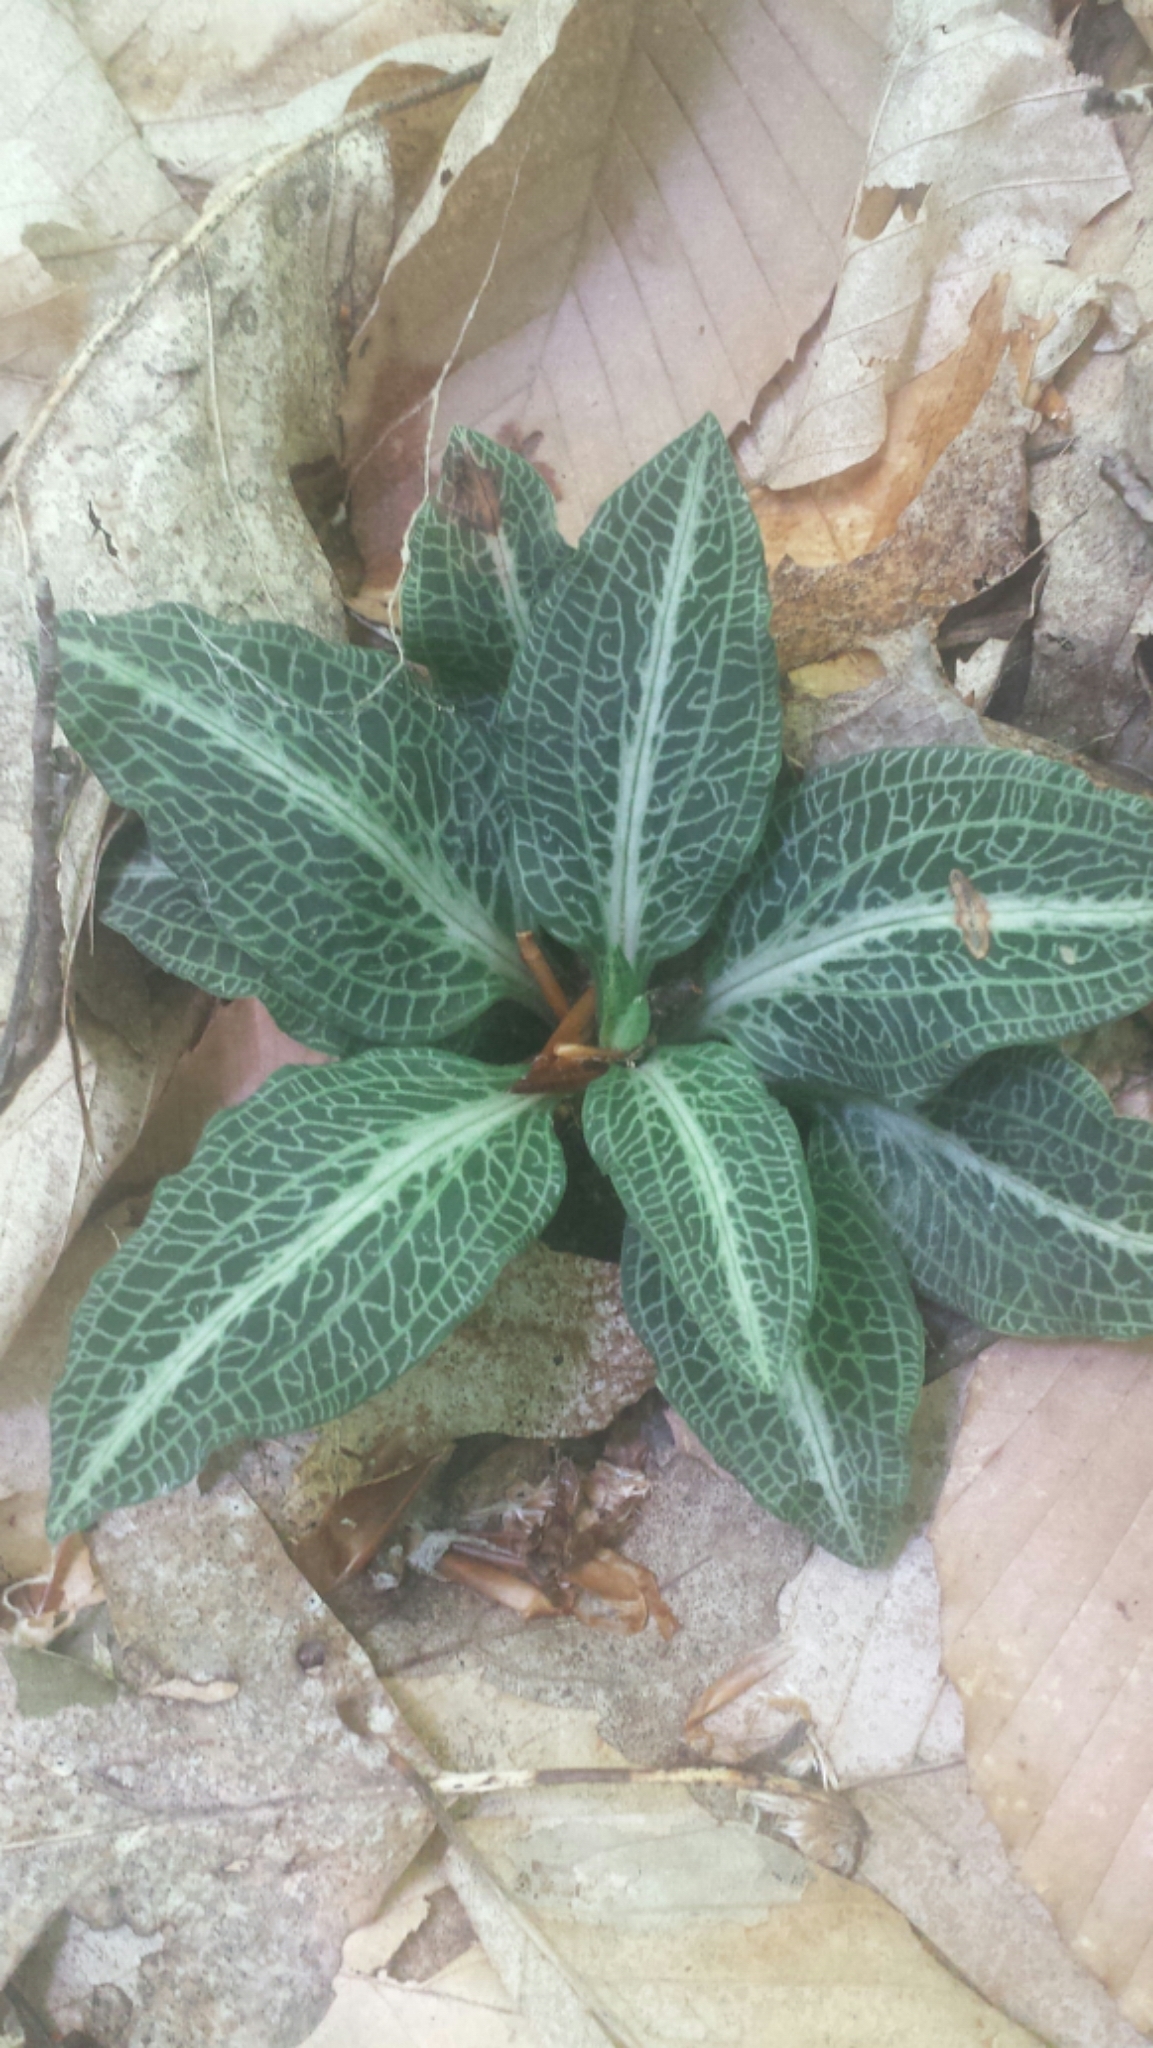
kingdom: Plantae
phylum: Tracheophyta
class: Liliopsida
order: Asparagales
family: Orchidaceae
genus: Goodyera
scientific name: Goodyera pubescens
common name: Downy rattlesnake-plantain
